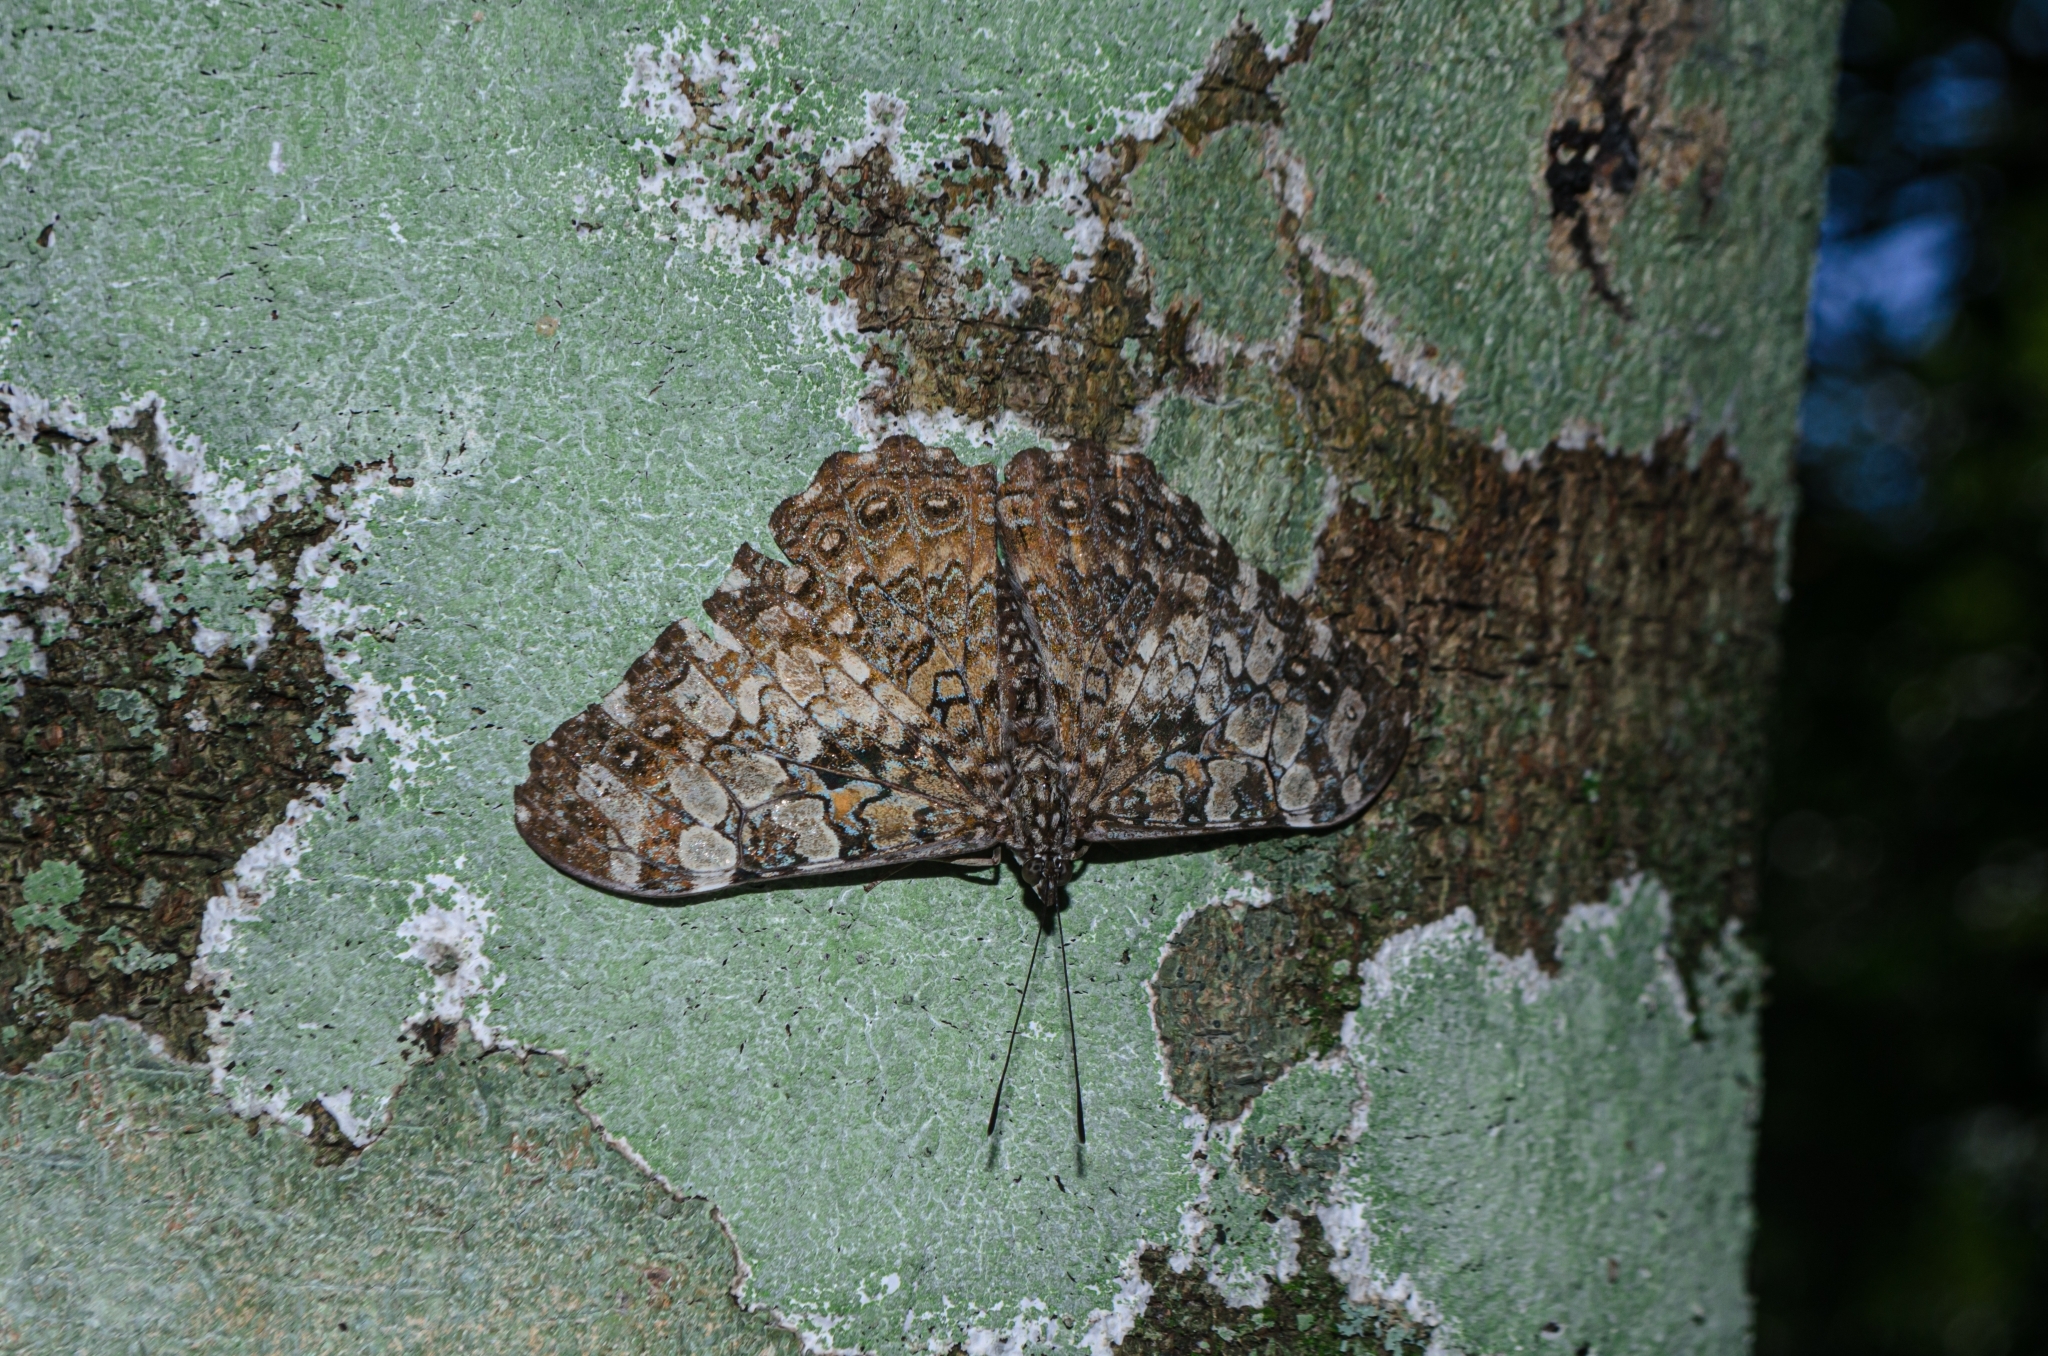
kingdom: Animalia
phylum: Arthropoda
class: Insecta
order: Lepidoptera
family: Nymphalidae
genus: Hamadryas
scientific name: Hamadryas epinome
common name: Epinome cracker
